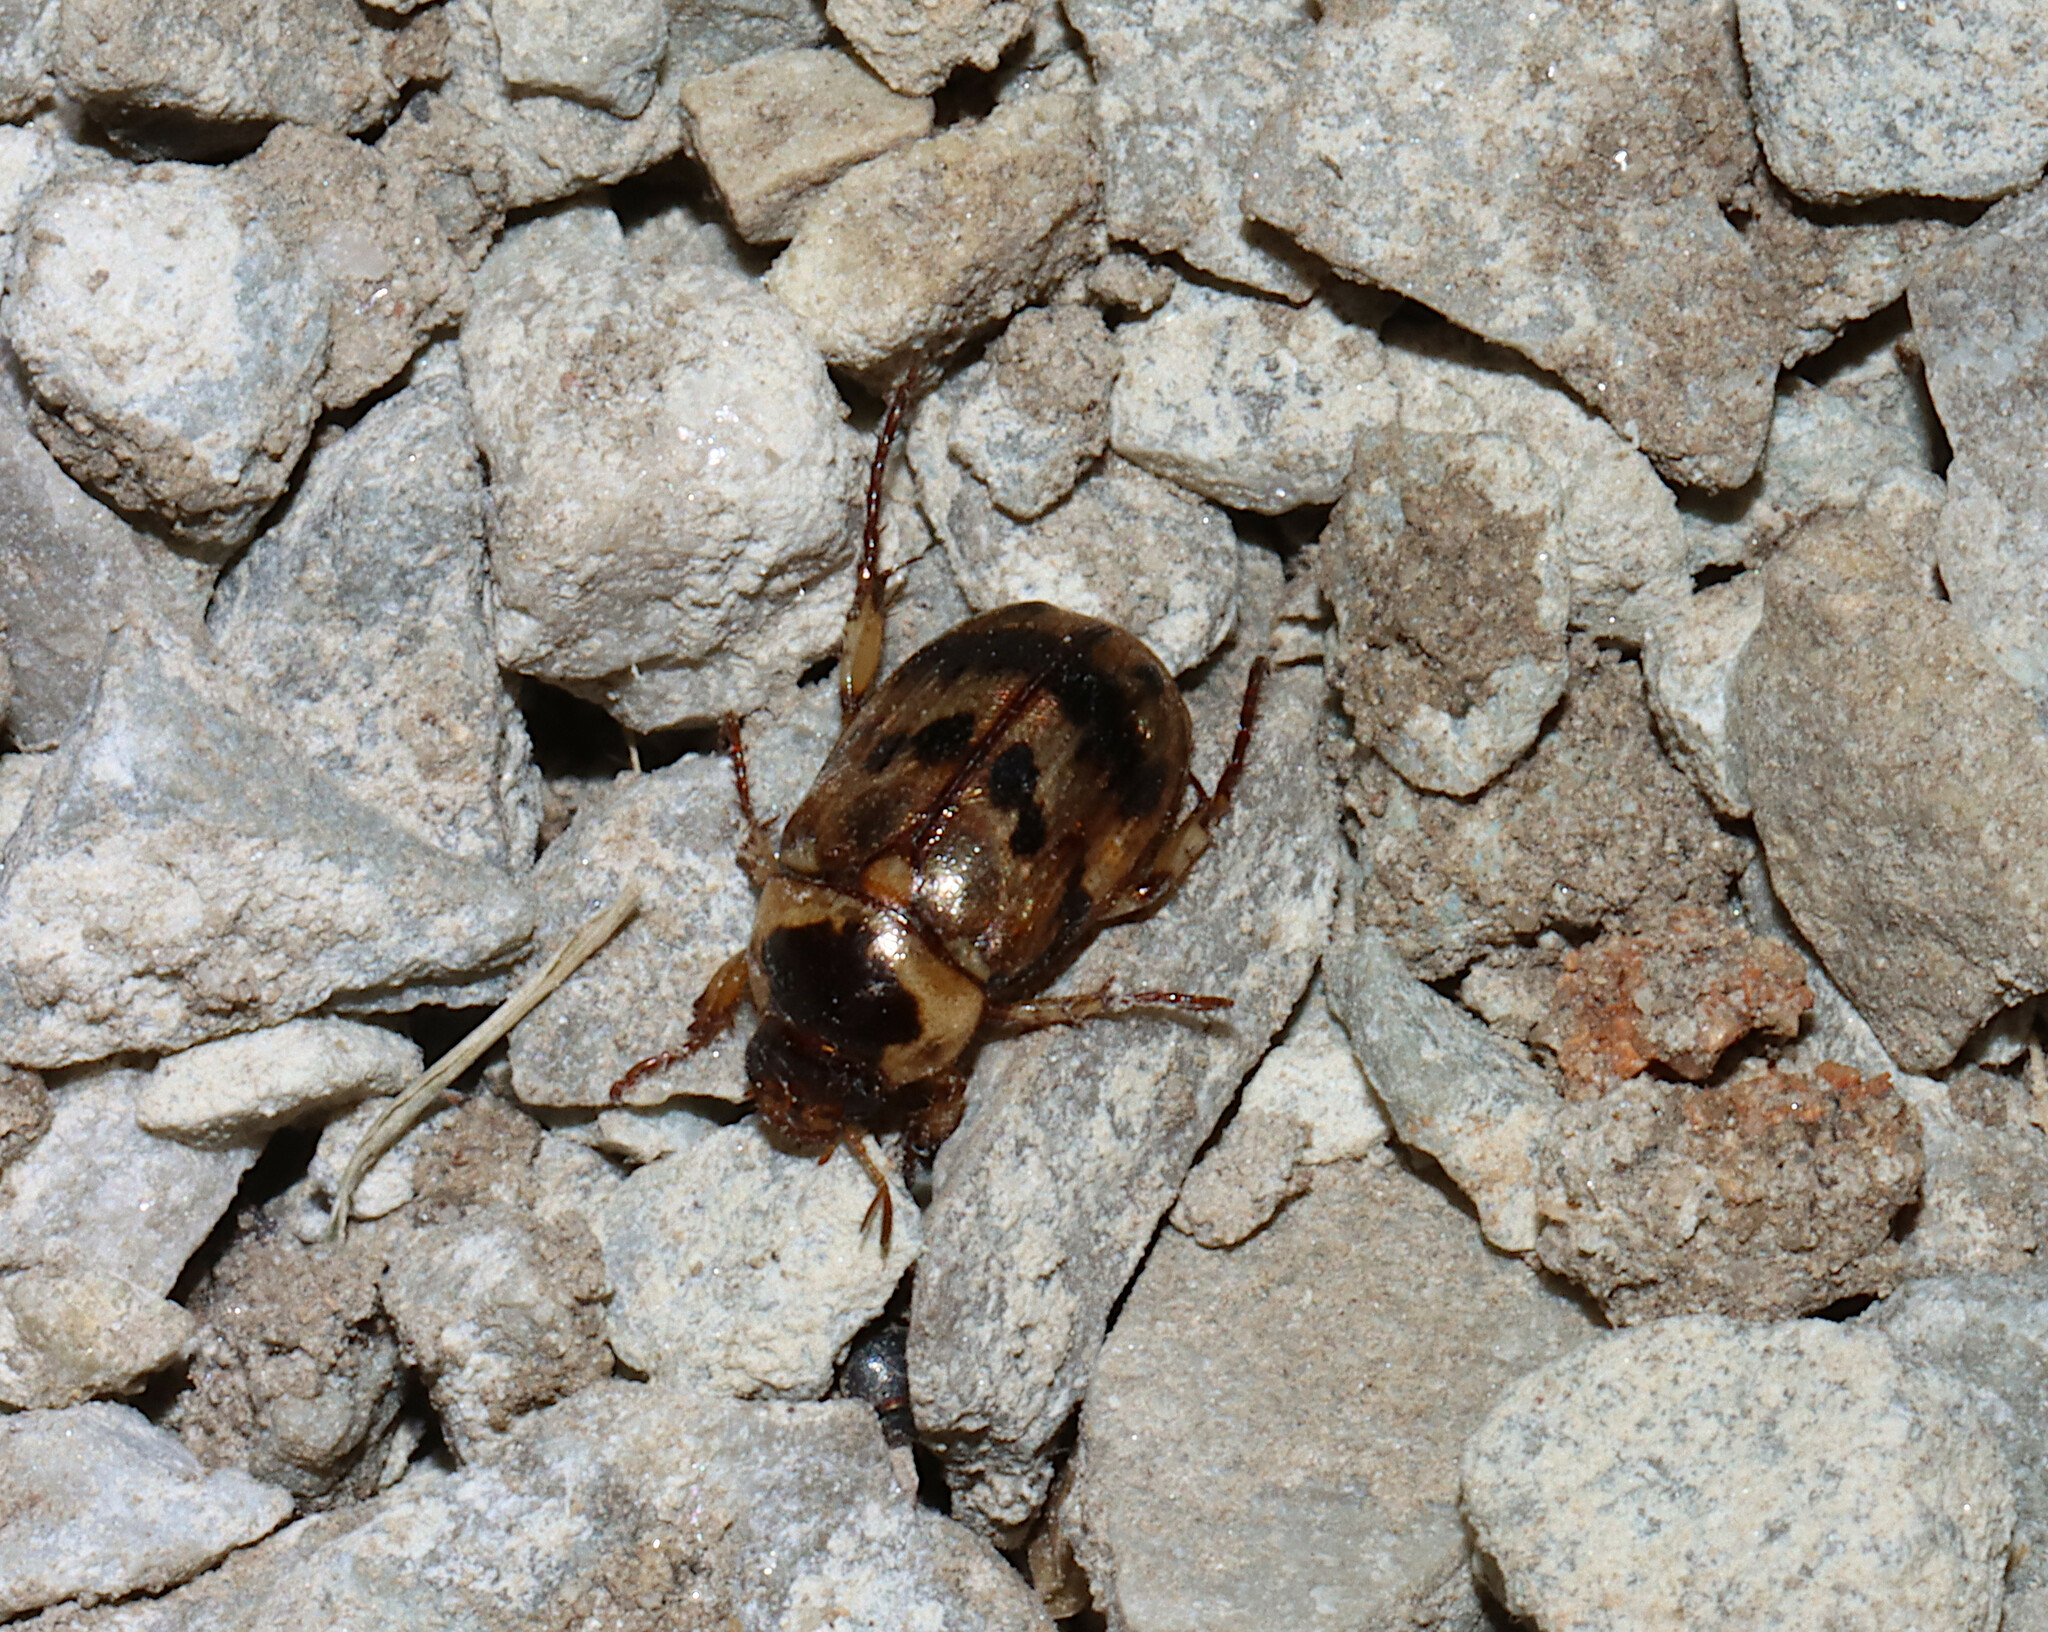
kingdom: Animalia
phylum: Arthropoda
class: Insecta
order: Coleoptera
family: Scarabaeidae
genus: Anomala
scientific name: Anomala innuba
